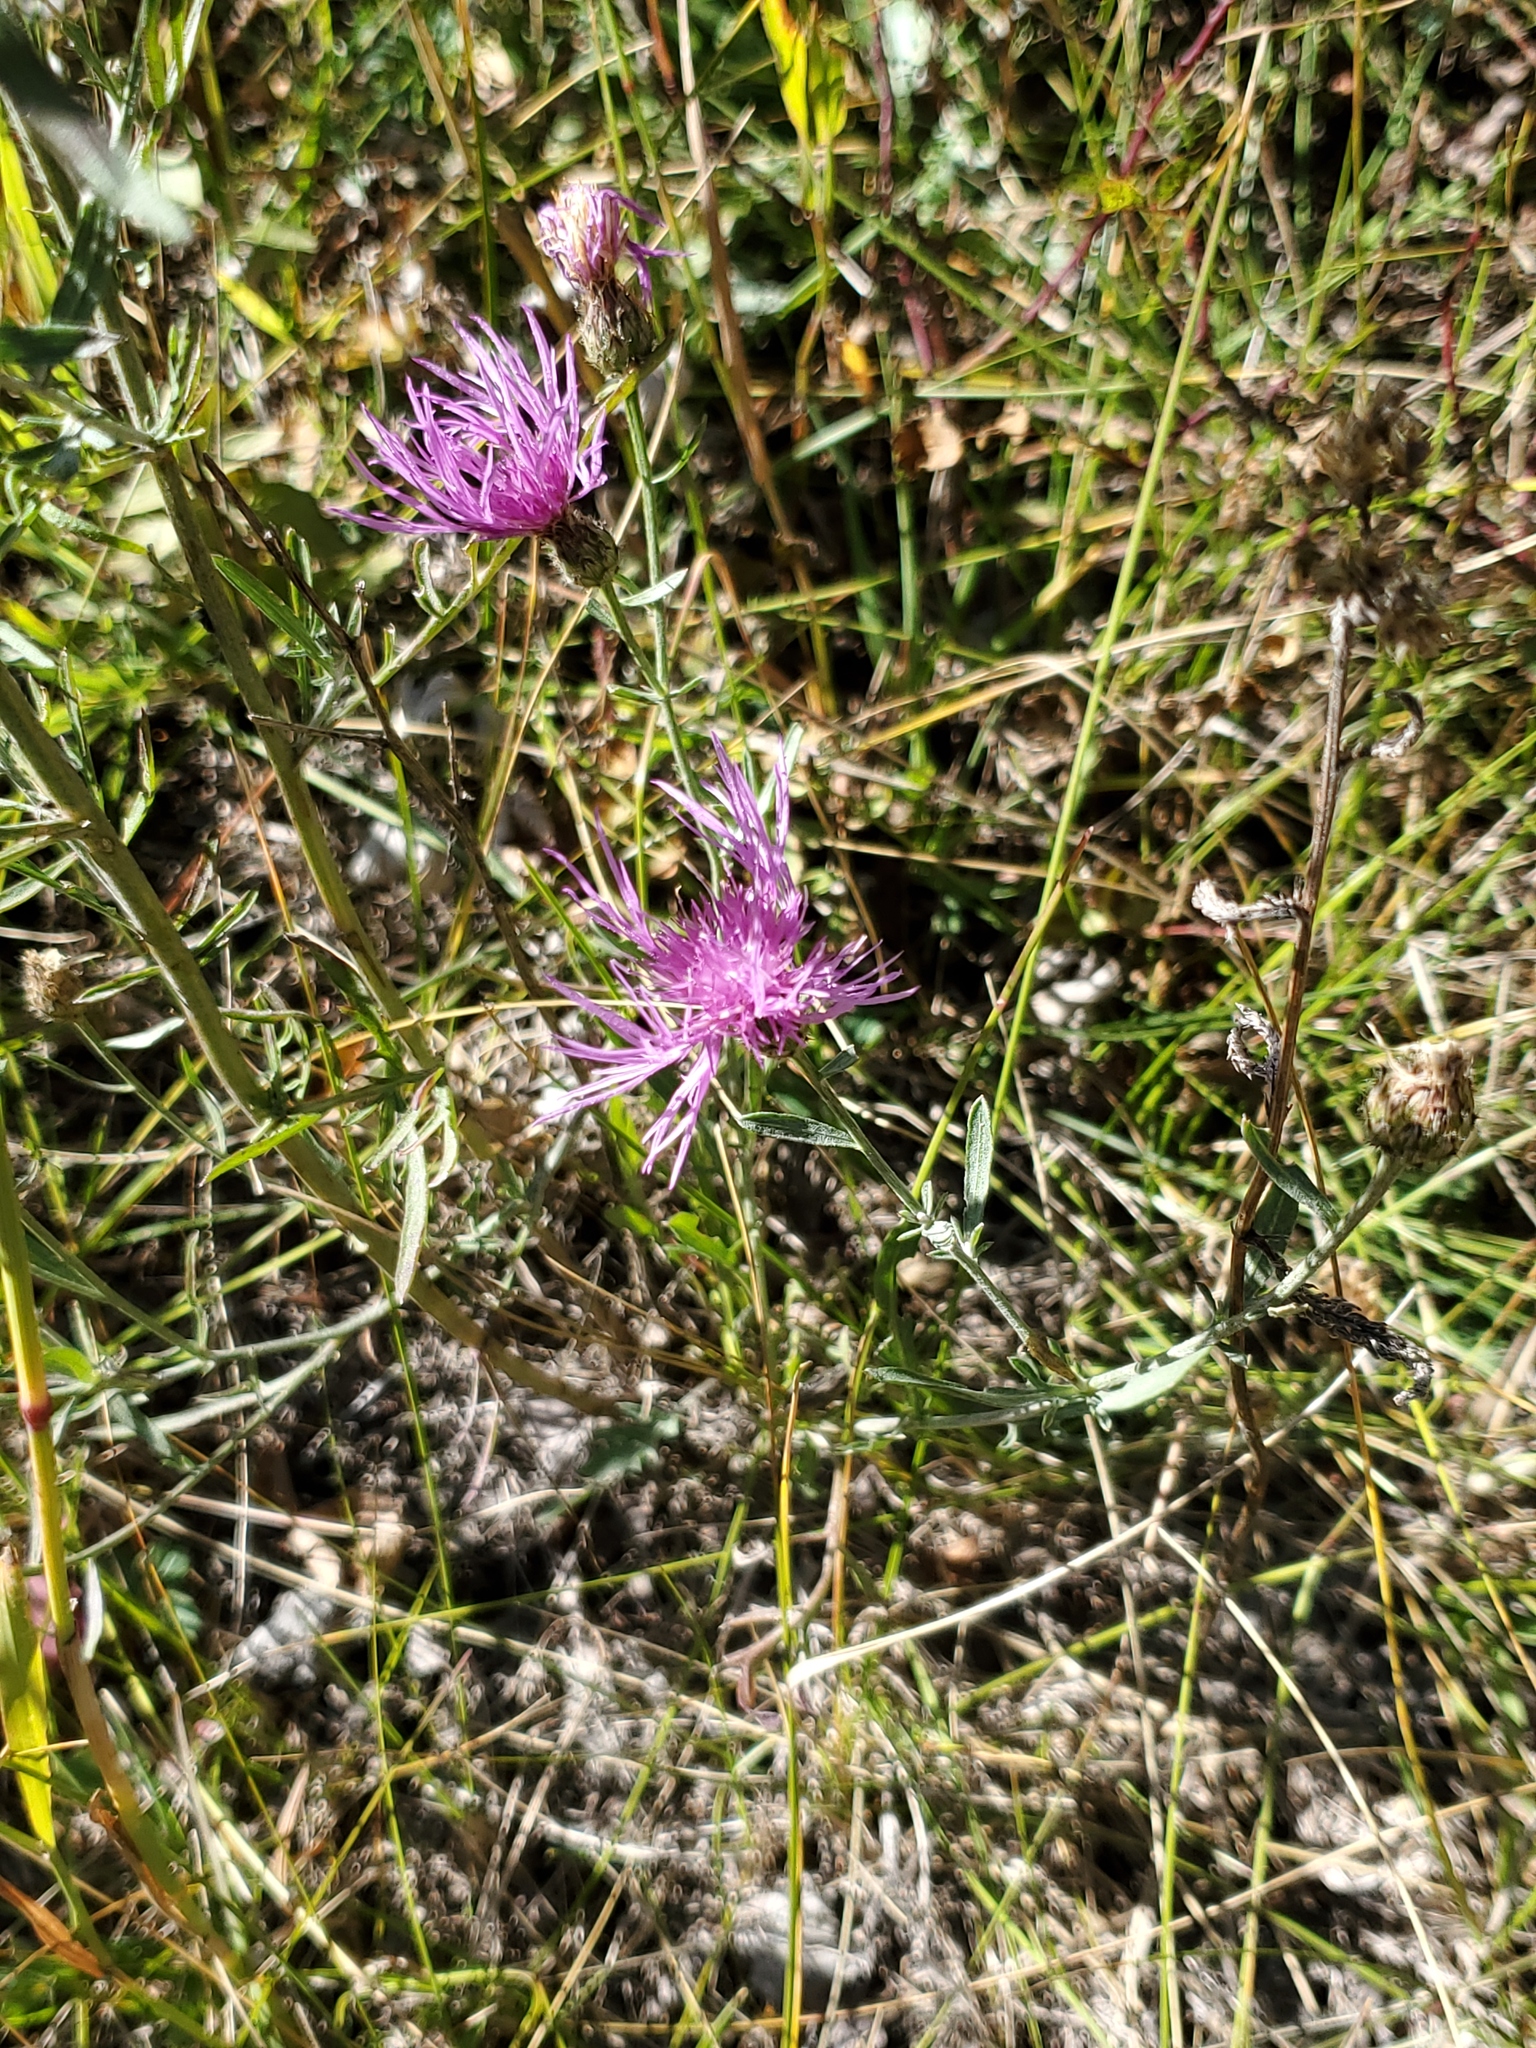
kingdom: Plantae
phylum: Tracheophyta
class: Magnoliopsida
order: Asterales
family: Asteraceae
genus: Centaurea
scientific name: Centaurea stoebe
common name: Spotted knapweed
